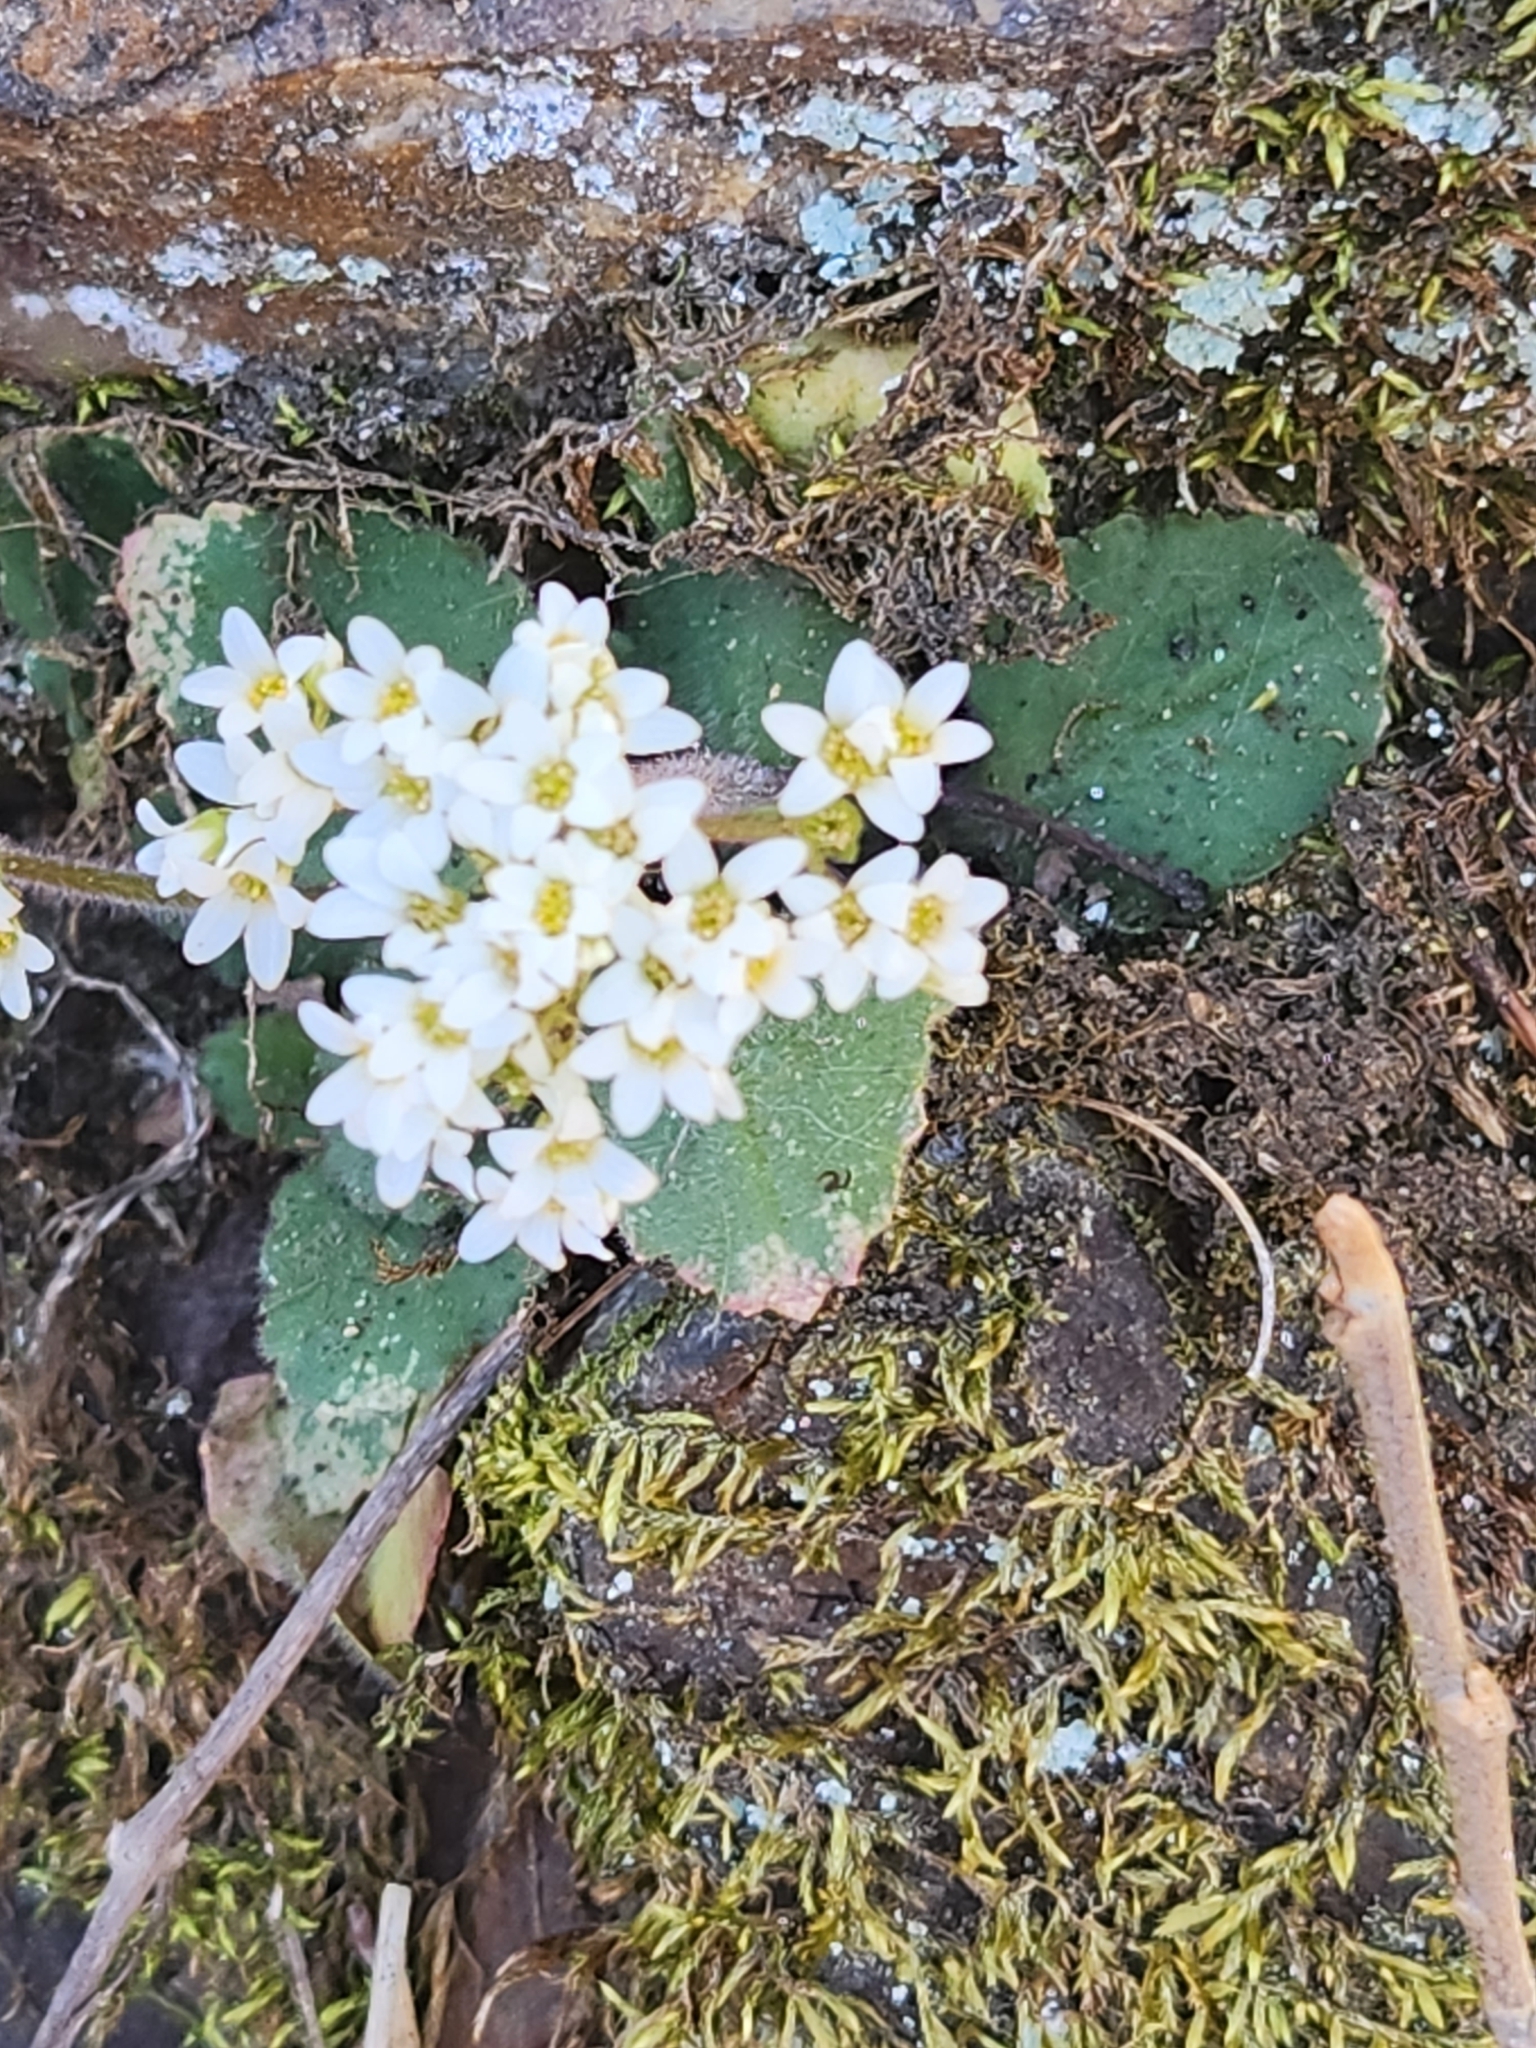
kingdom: Plantae
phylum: Tracheophyta
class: Magnoliopsida
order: Saxifragales
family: Saxifragaceae
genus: Micranthes
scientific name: Micranthes virginiensis
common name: Early saxifrage
